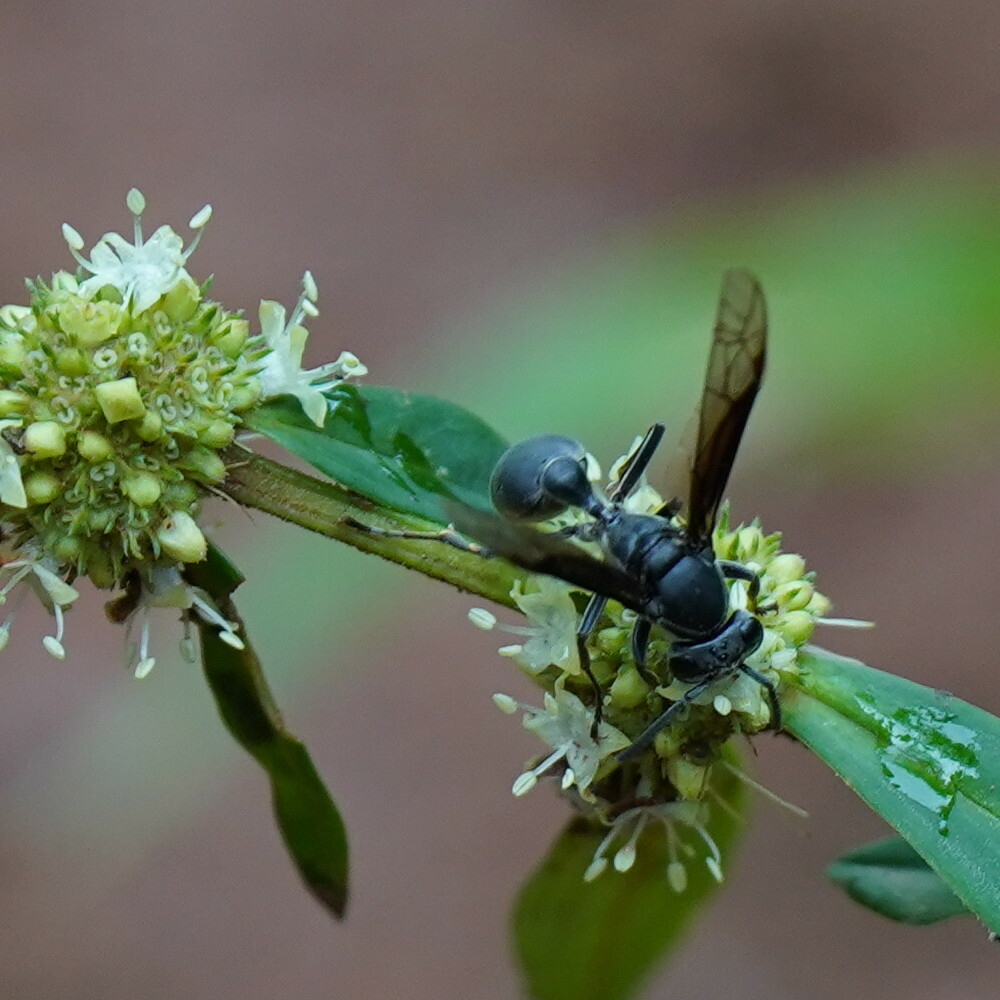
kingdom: Animalia
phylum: Arthropoda
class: Insecta
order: Hymenoptera
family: Eumenidae
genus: Polybia
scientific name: Polybia ignobilis
